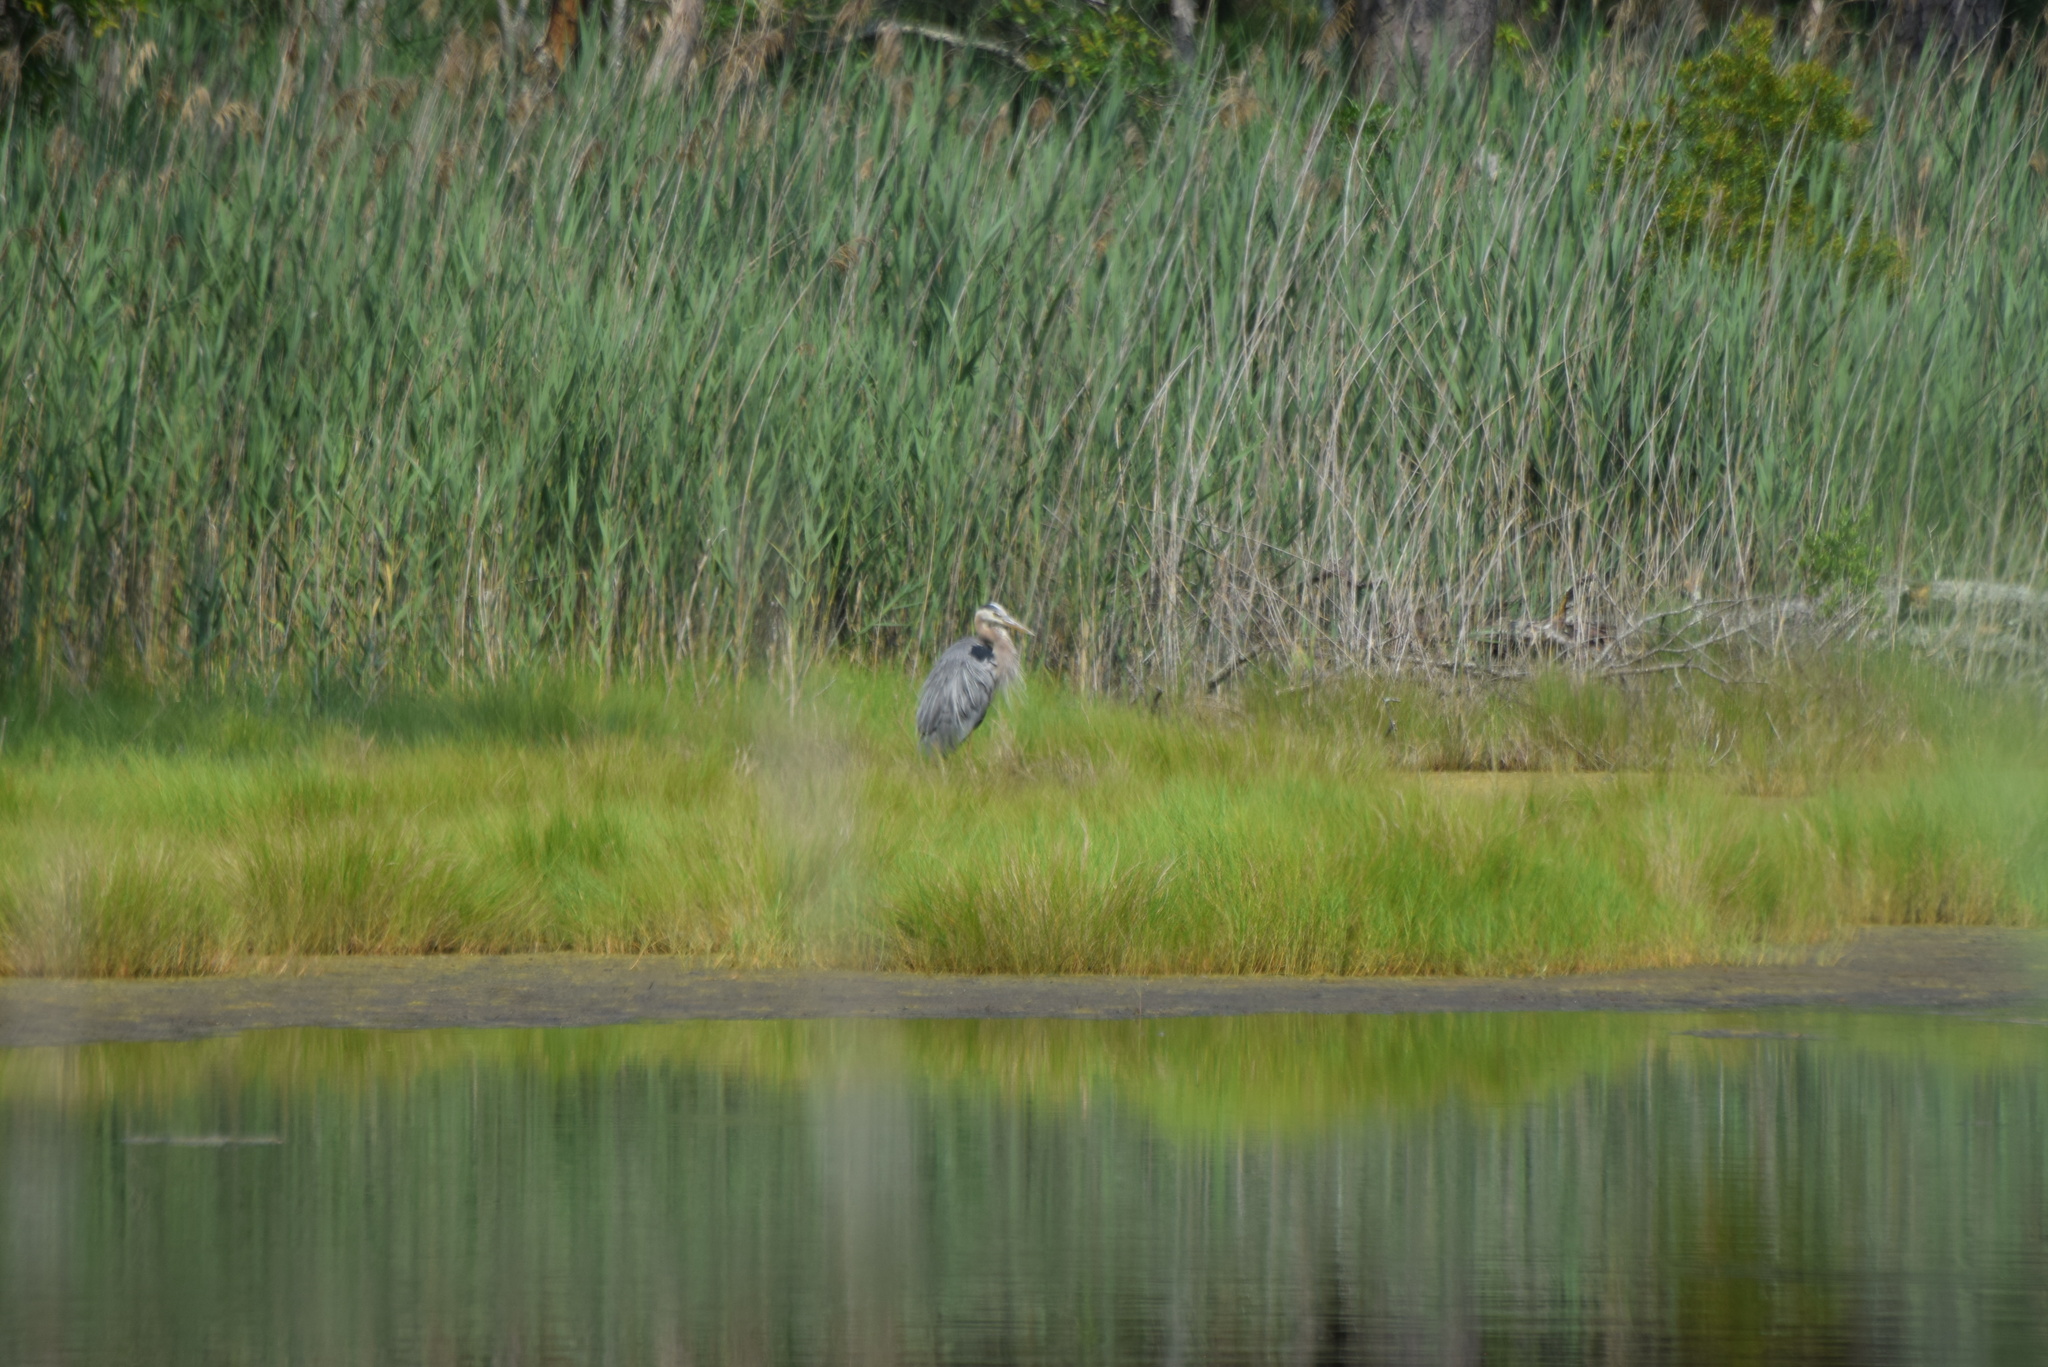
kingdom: Animalia
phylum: Chordata
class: Aves
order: Pelecaniformes
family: Ardeidae
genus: Ardea
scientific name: Ardea herodias
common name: Great blue heron
